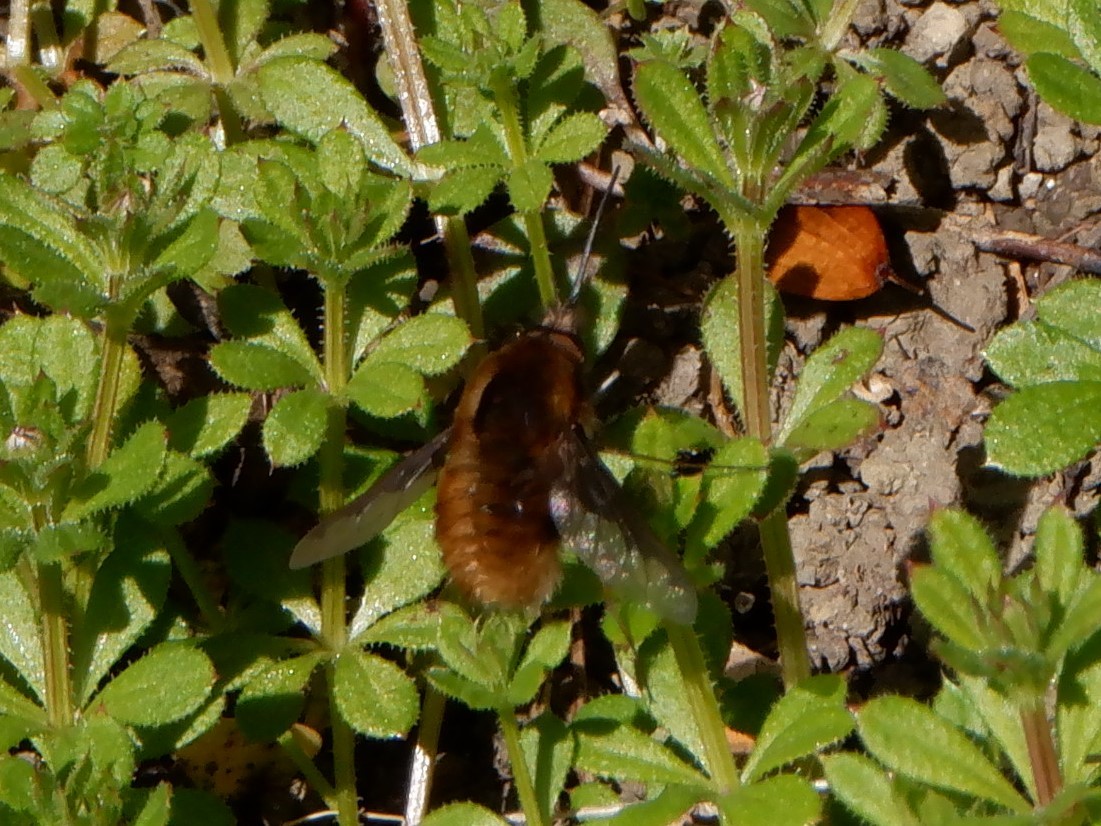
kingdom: Animalia
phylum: Arthropoda
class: Insecta
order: Diptera
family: Bombyliidae
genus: Bombylius
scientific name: Bombylius major
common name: Bee fly
